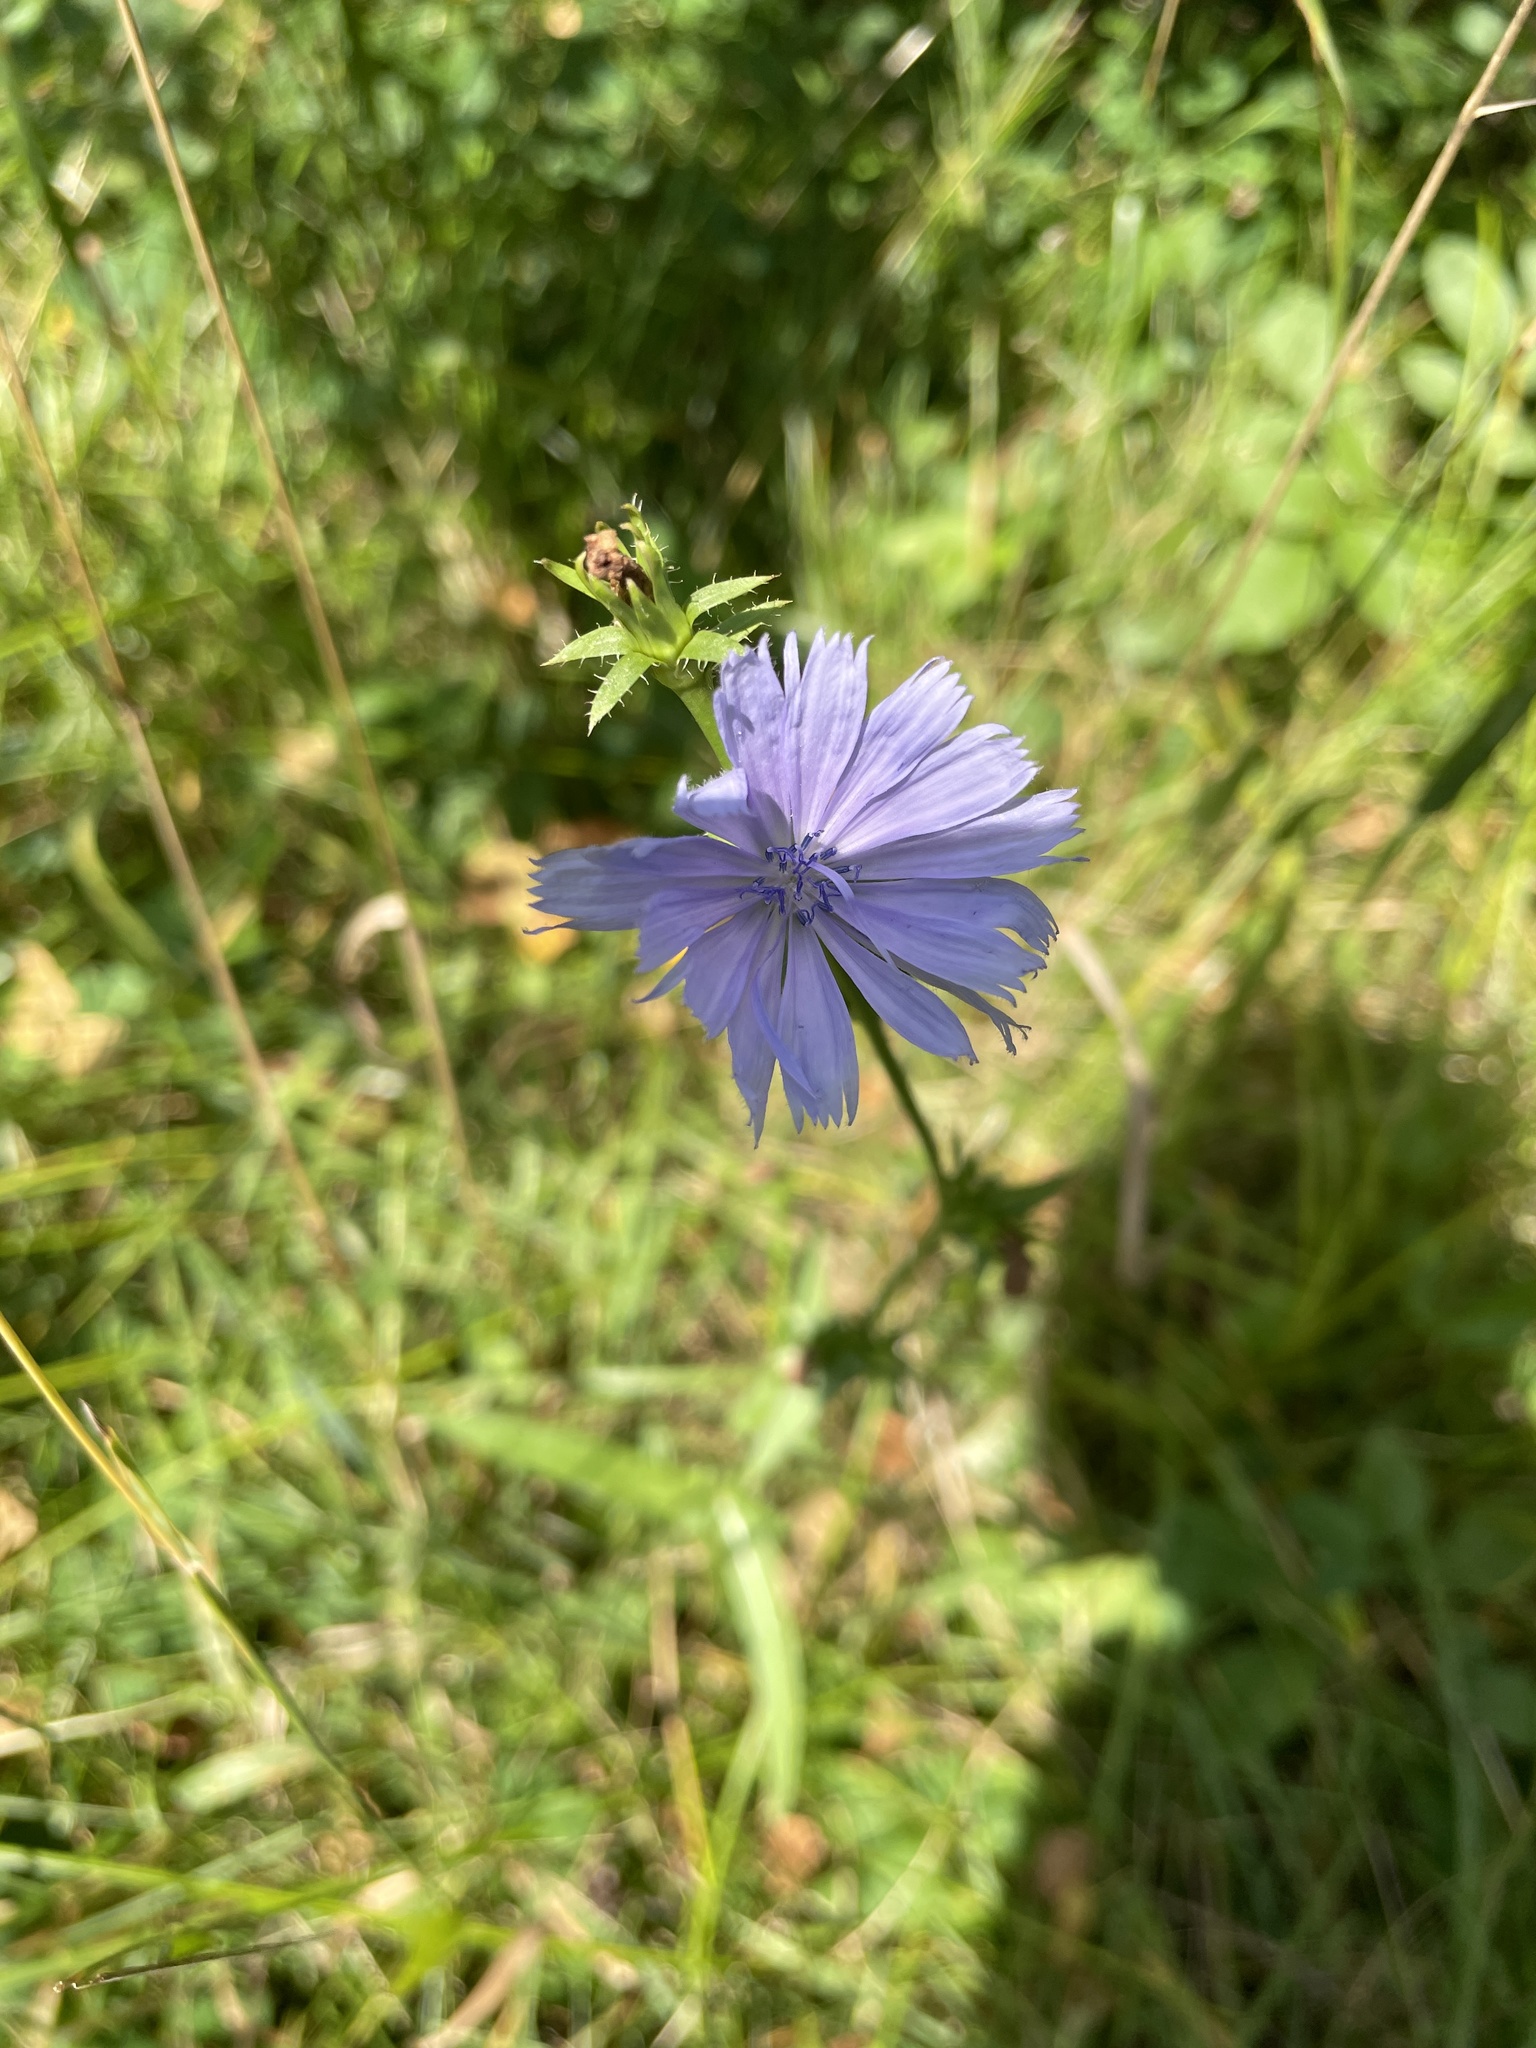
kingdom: Plantae
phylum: Tracheophyta
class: Magnoliopsida
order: Asterales
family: Asteraceae
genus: Cichorium
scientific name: Cichorium intybus
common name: Chicory
